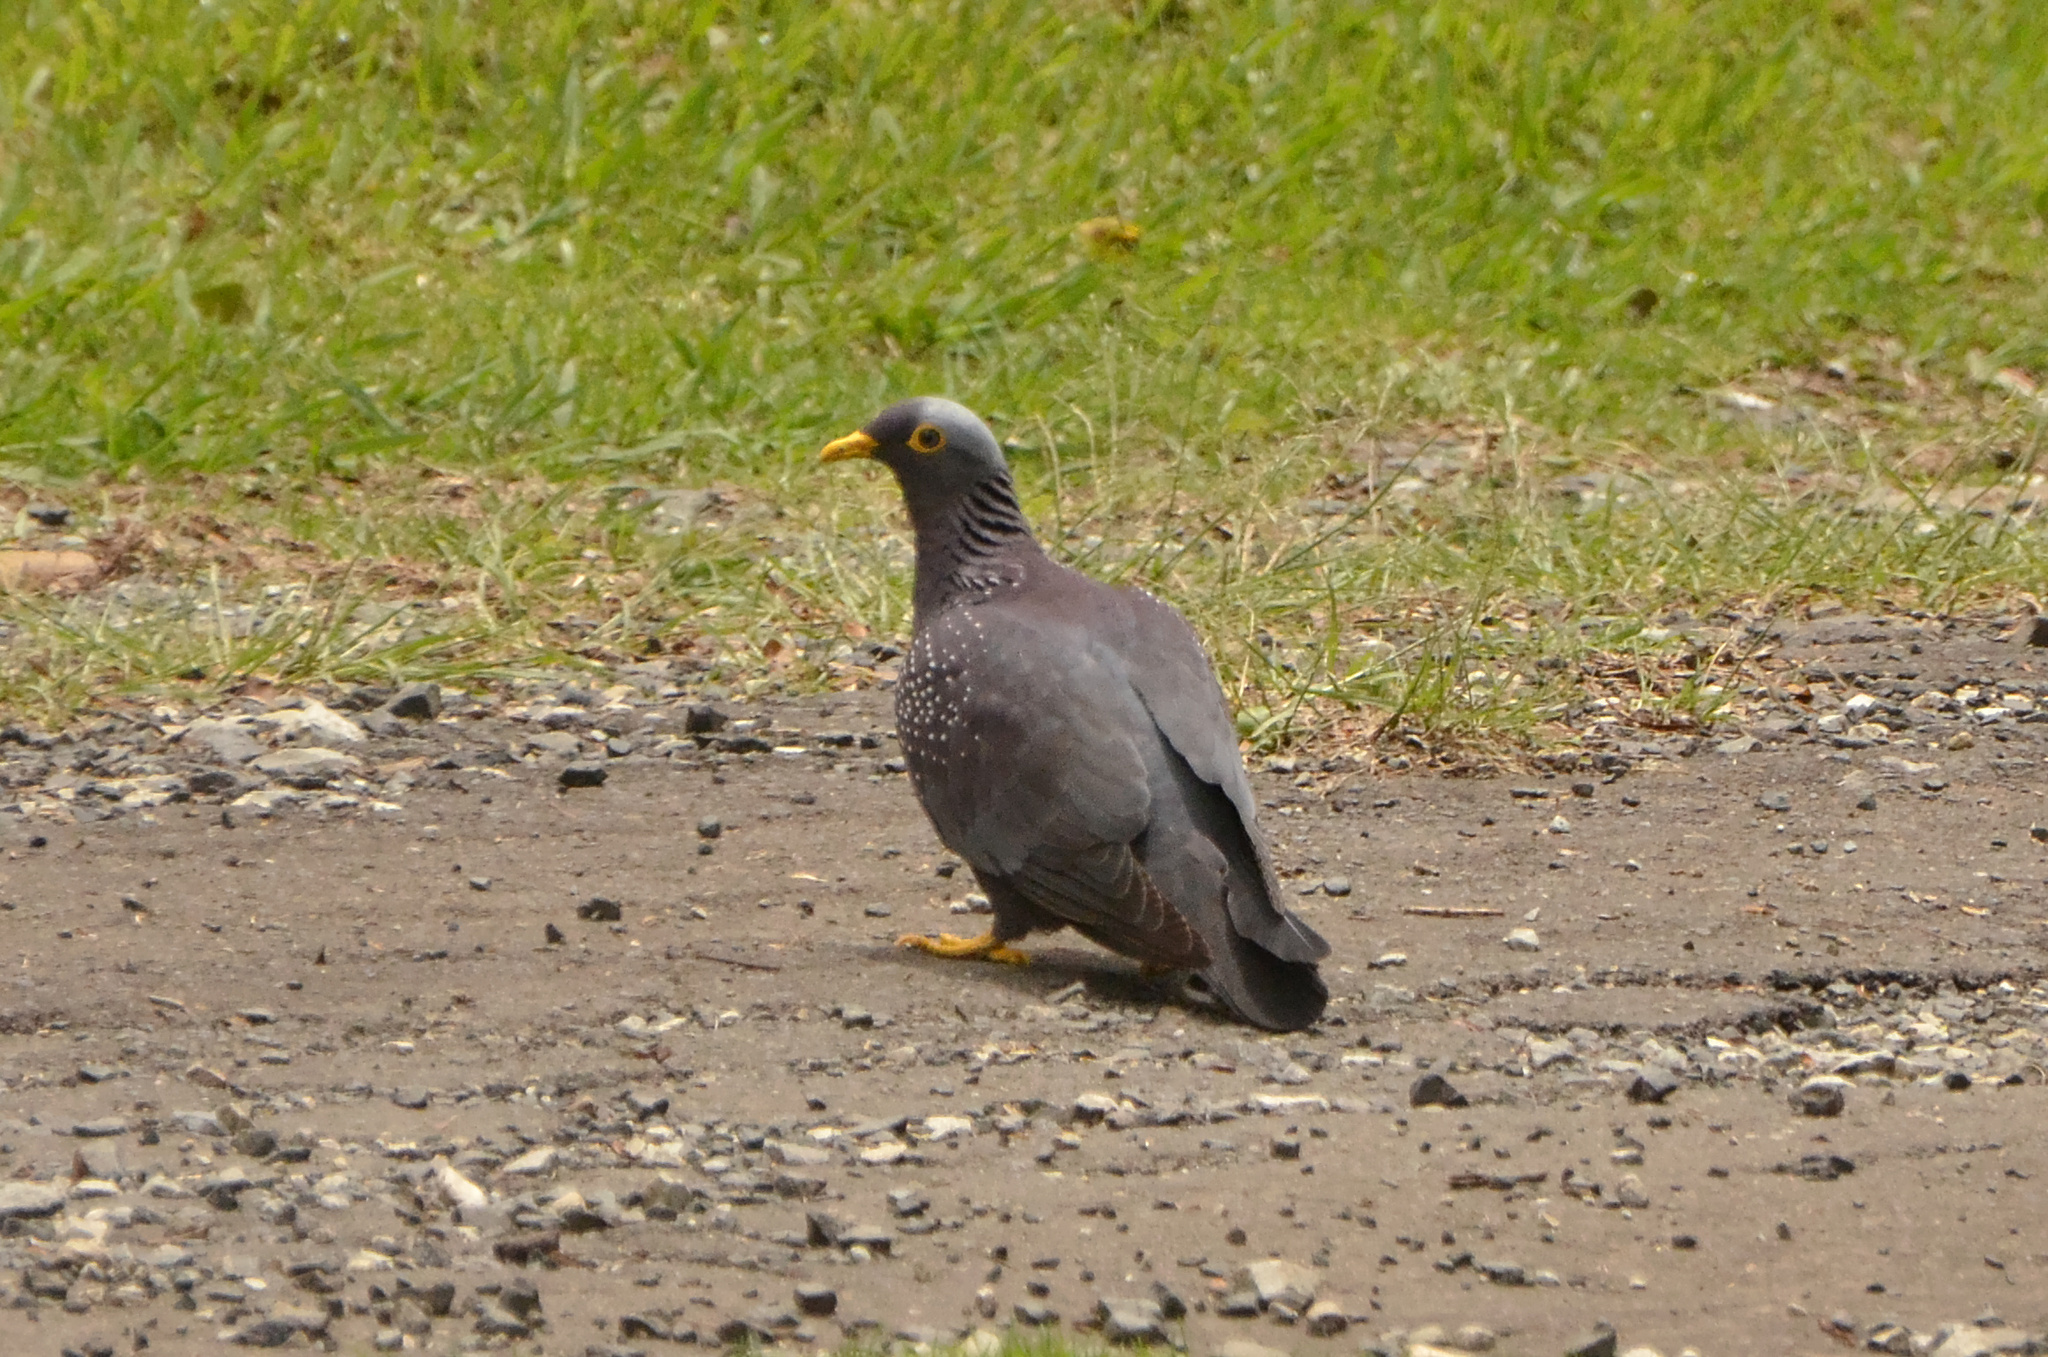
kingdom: Animalia
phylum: Chordata
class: Aves
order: Columbiformes
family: Columbidae
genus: Columba
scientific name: Columba arquatrix
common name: African olive pigeon
